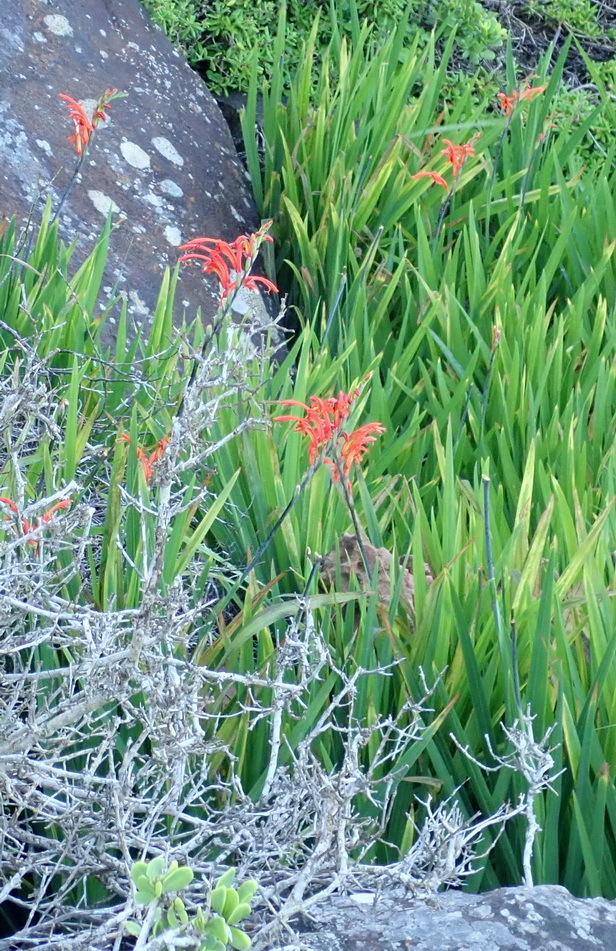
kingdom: Plantae
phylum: Tracheophyta
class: Liliopsida
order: Asparagales
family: Iridaceae
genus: Chasmanthe
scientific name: Chasmanthe aethiopica
